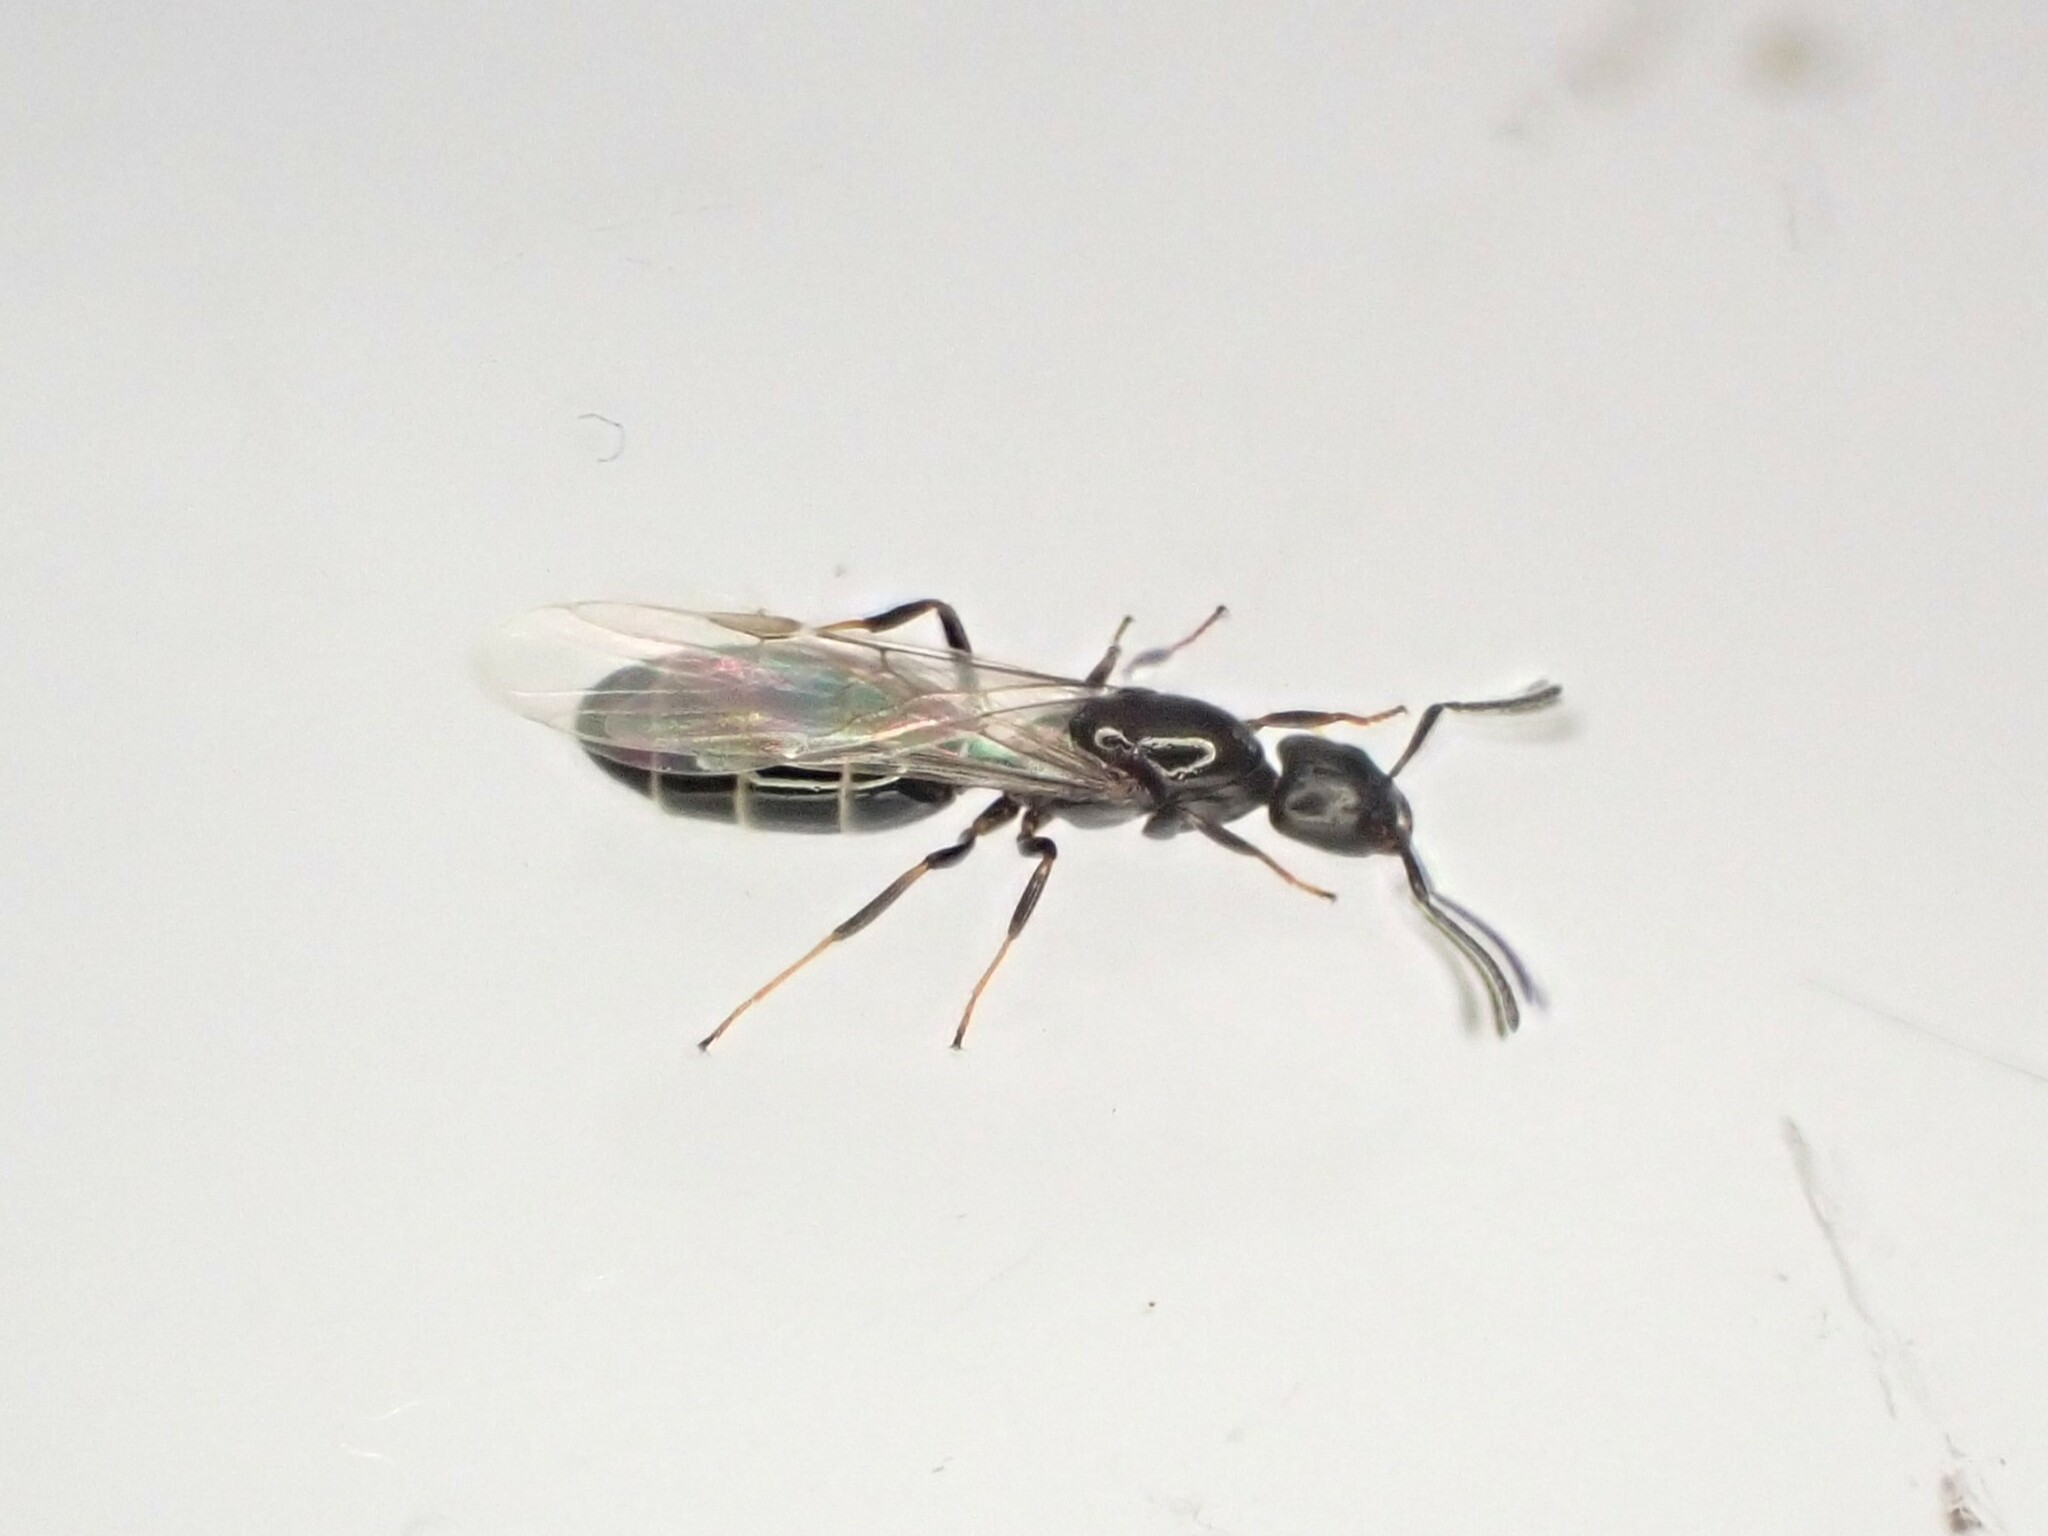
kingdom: Animalia
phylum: Arthropoda
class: Insecta
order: Hymenoptera
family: Formicidae
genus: Ochetellus
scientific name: Ochetellus glaber
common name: Ant
